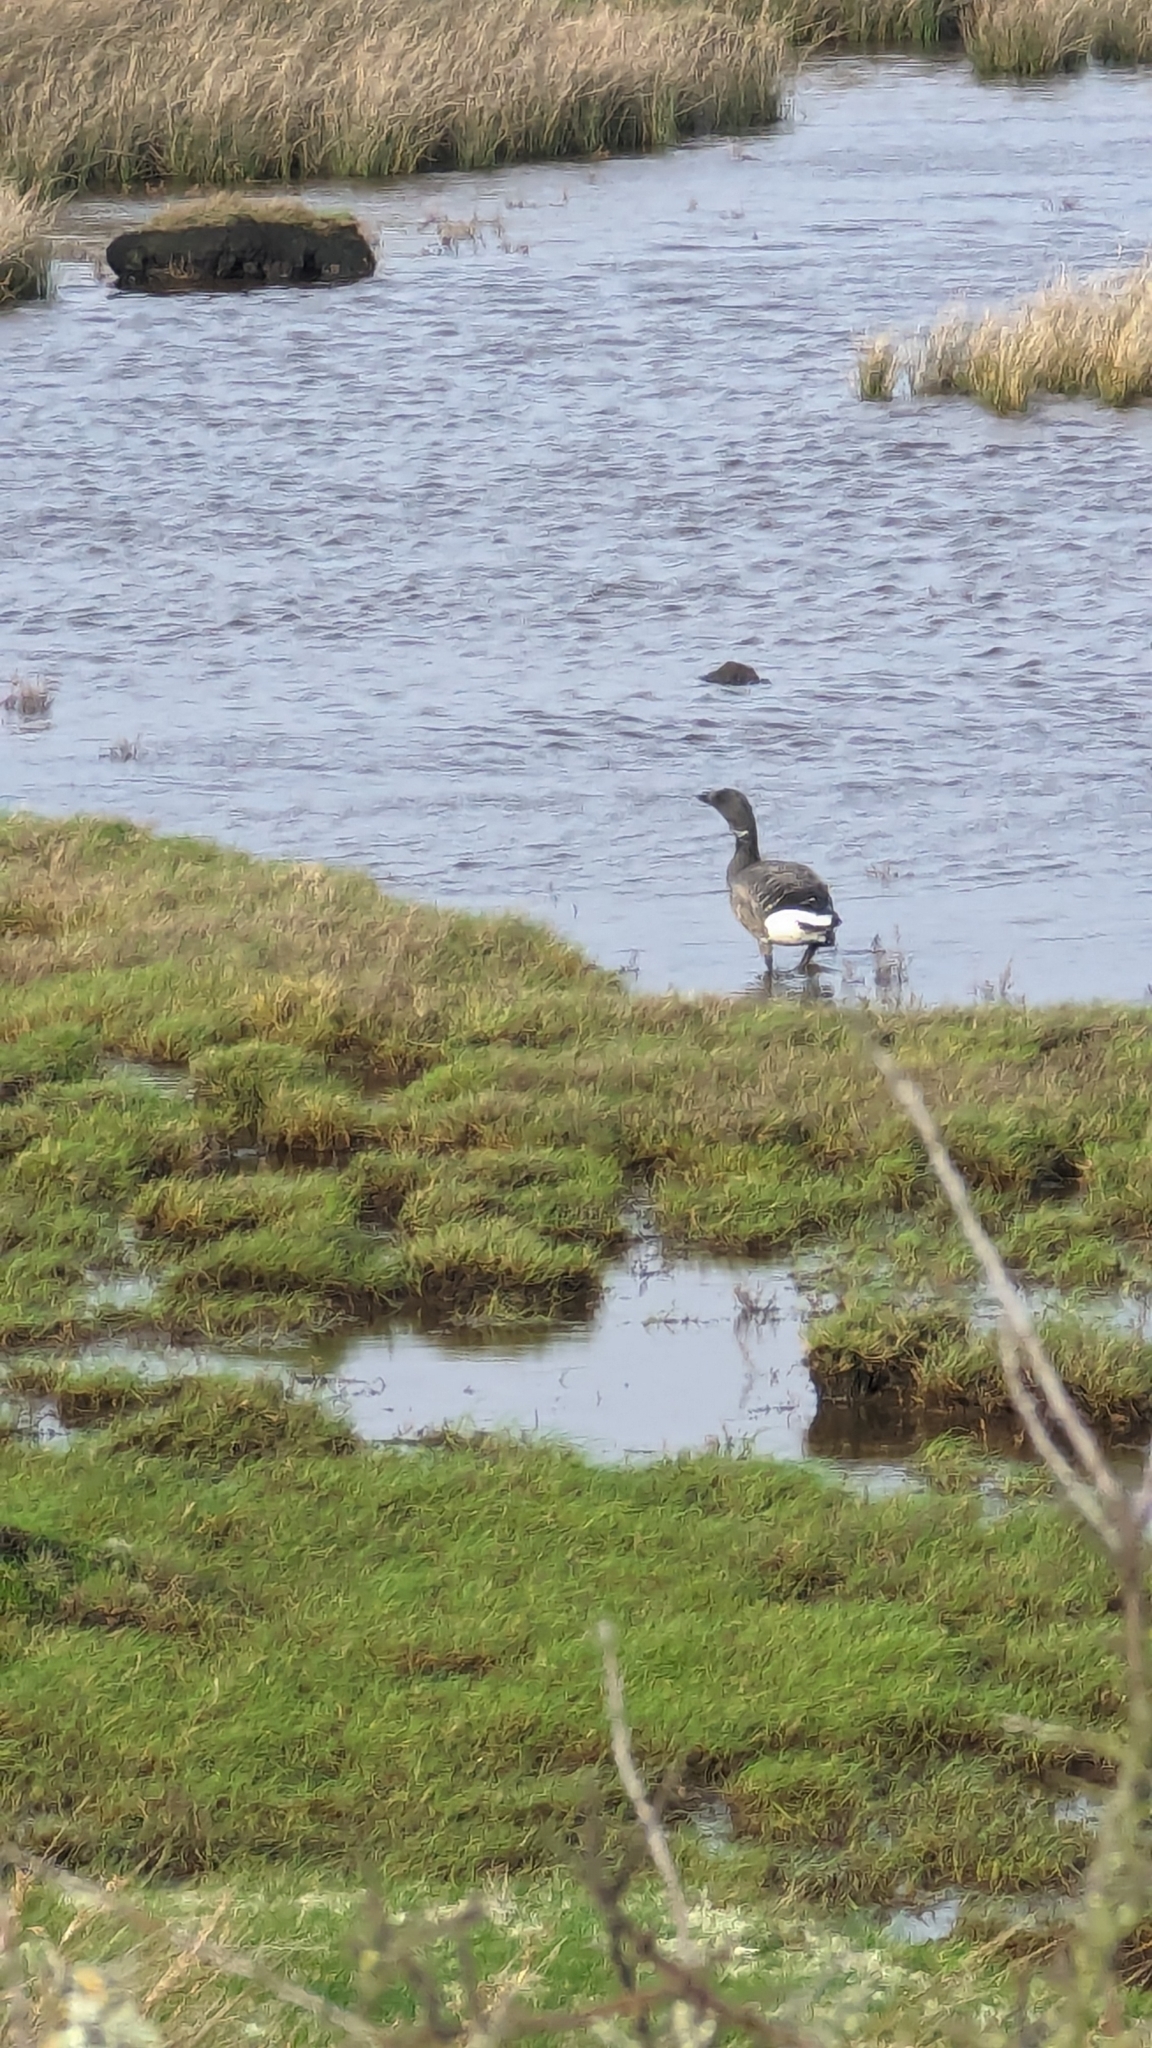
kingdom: Animalia
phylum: Chordata
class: Aves
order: Anseriformes
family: Anatidae
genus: Branta
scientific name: Branta bernicla
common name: Brant goose
